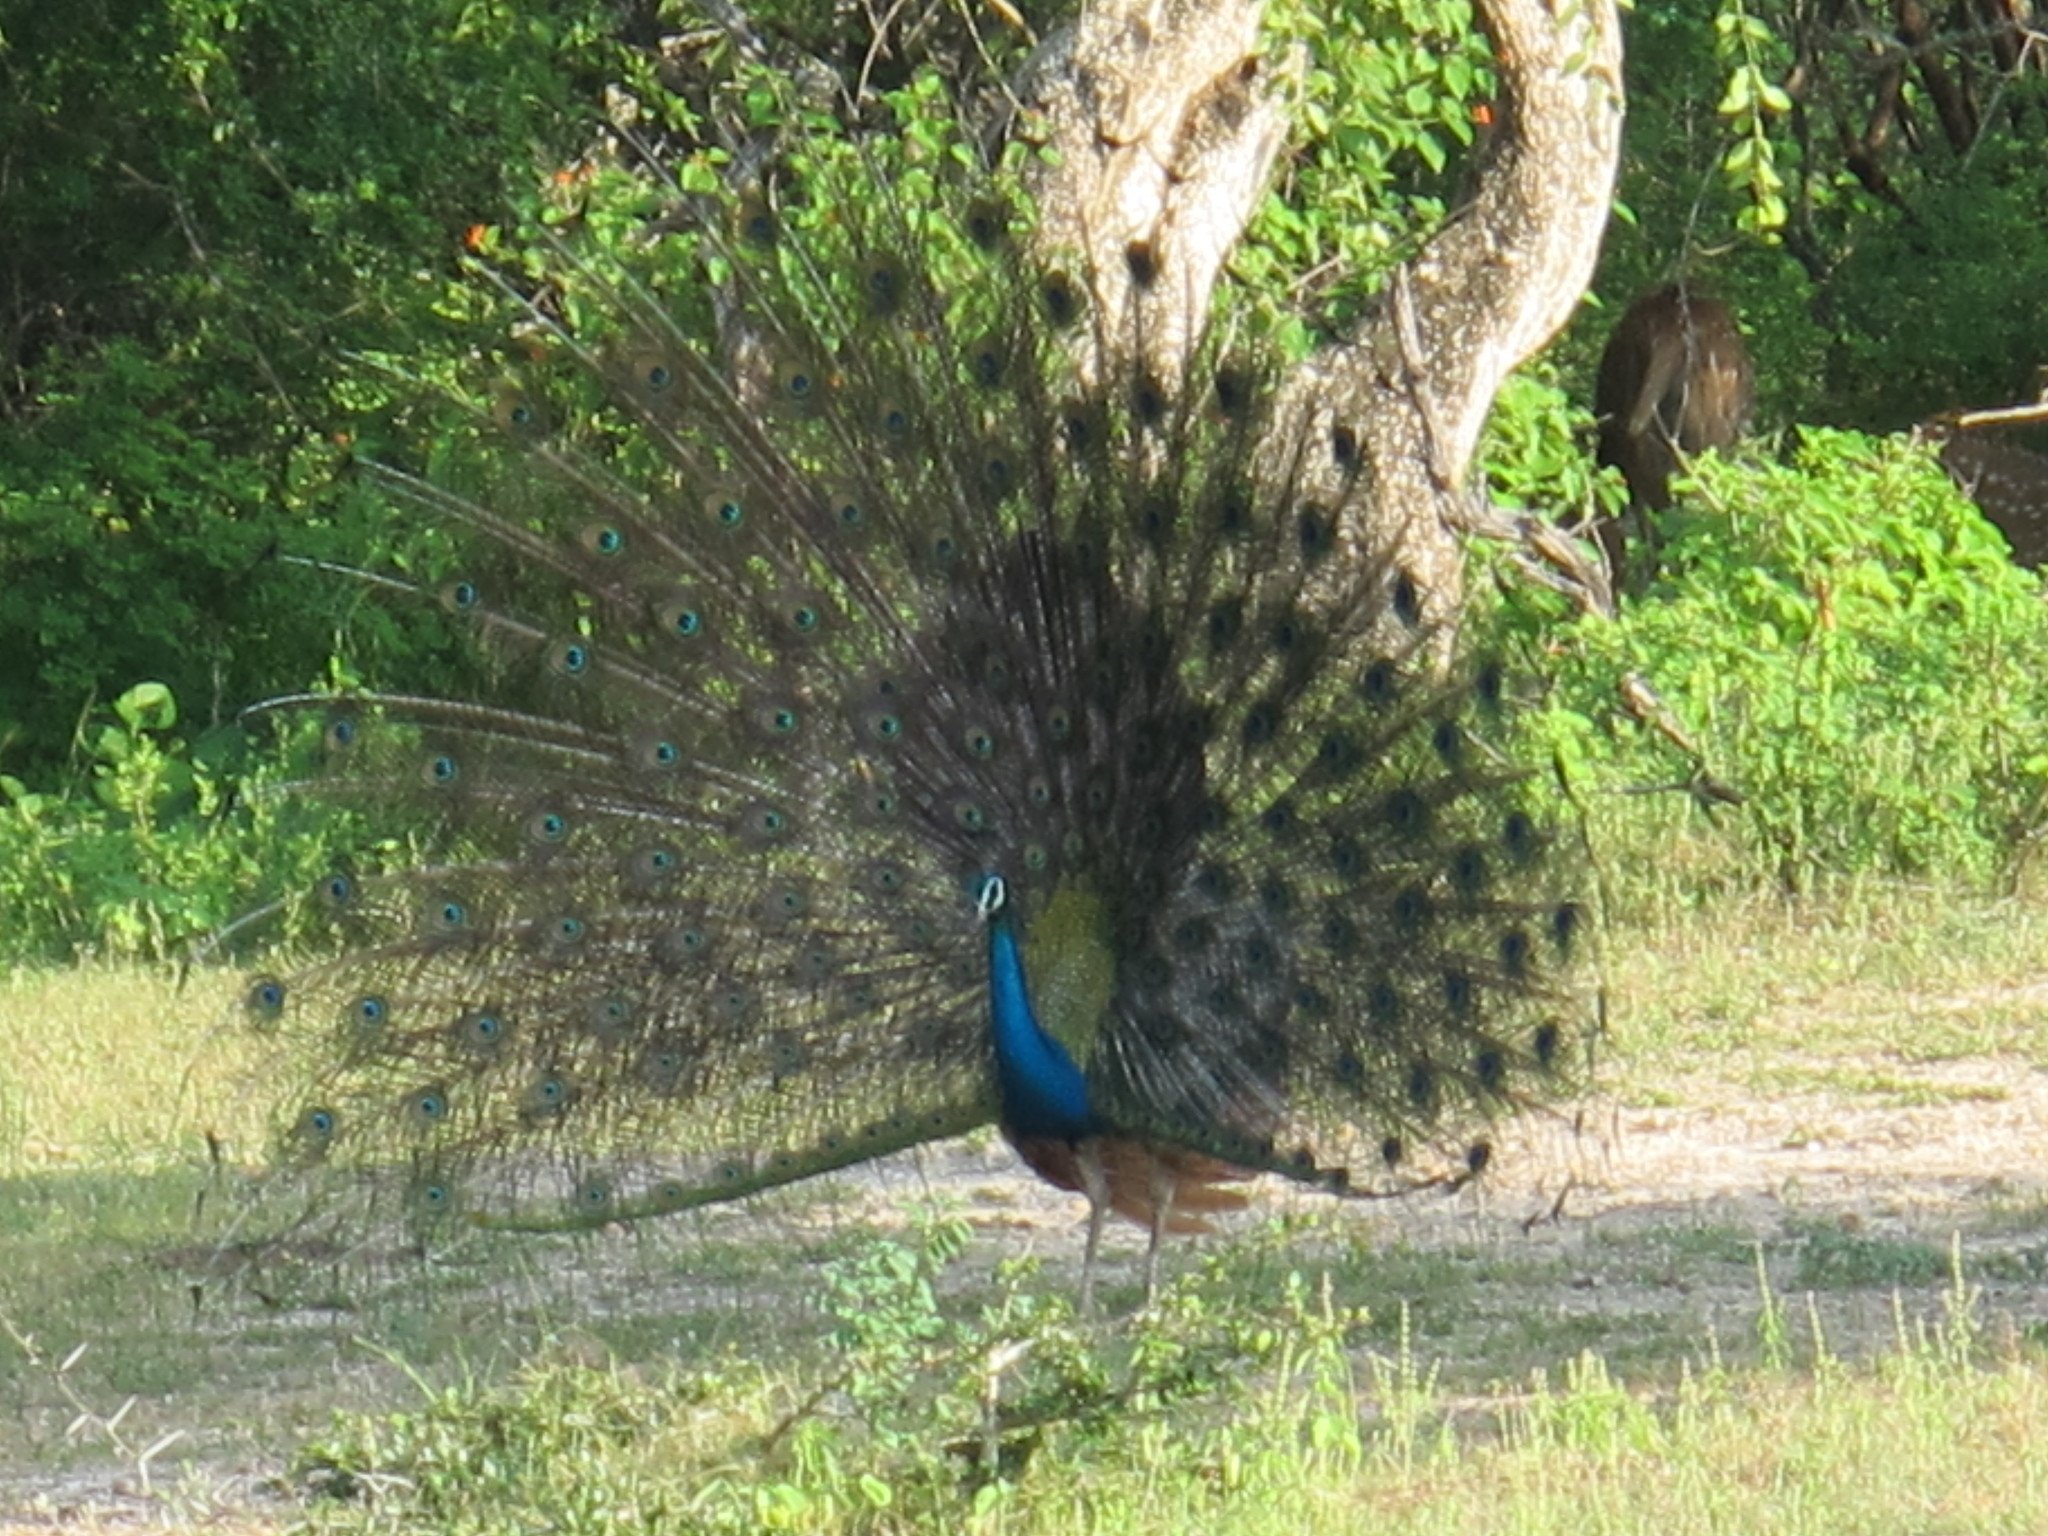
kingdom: Animalia
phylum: Chordata
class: Aves
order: Galliformes
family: Phasianidae
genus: Pavo
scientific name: Pavo cristatus
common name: Indian peafowl
